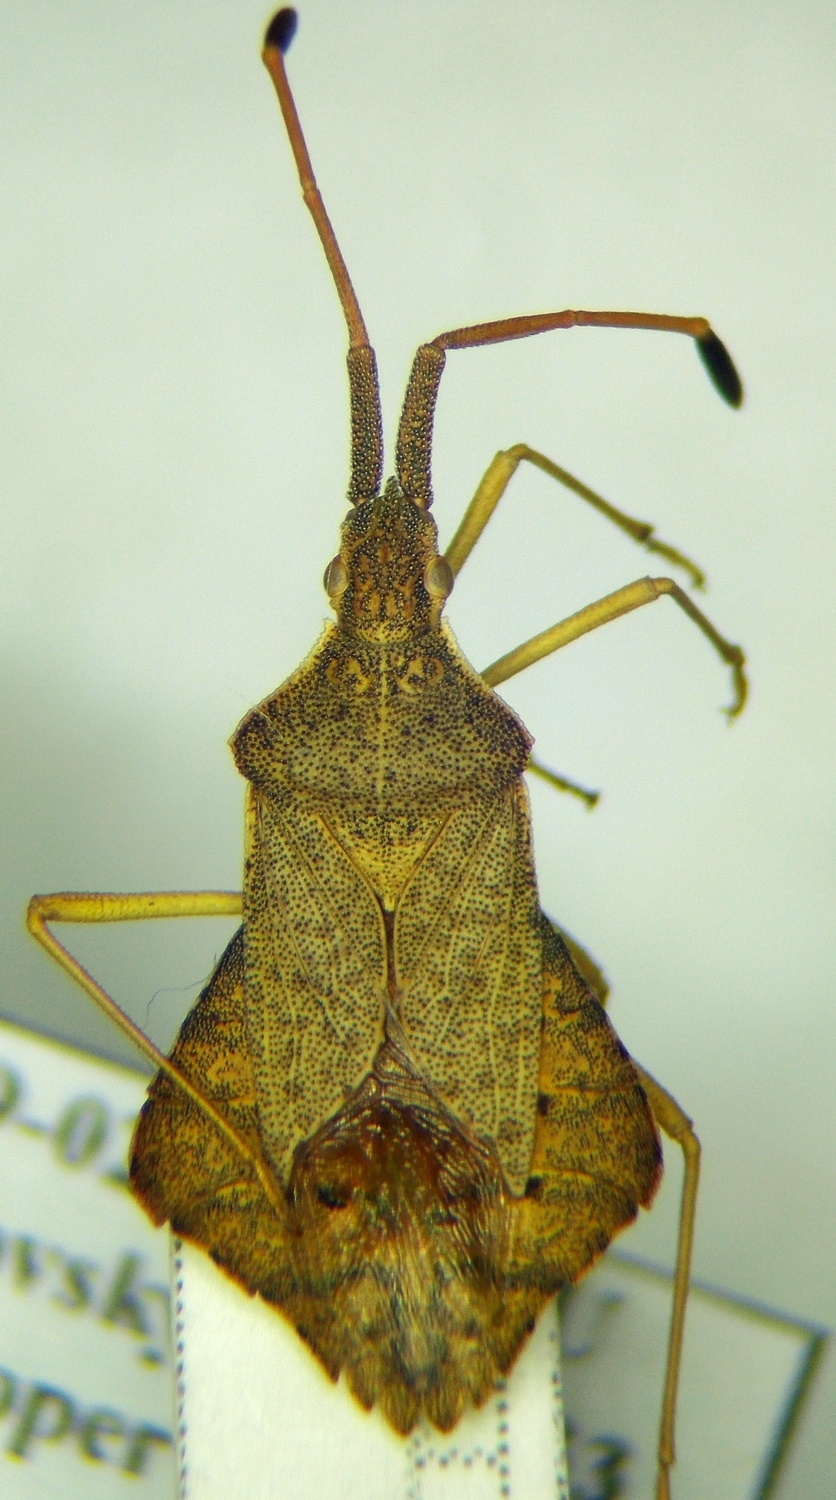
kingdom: Animalia
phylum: Arthropoda
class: Insecta
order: Hemiptera
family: Coreidae
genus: Syromastus
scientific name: Syromastus rhombeus
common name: Rhombic leatherbug
